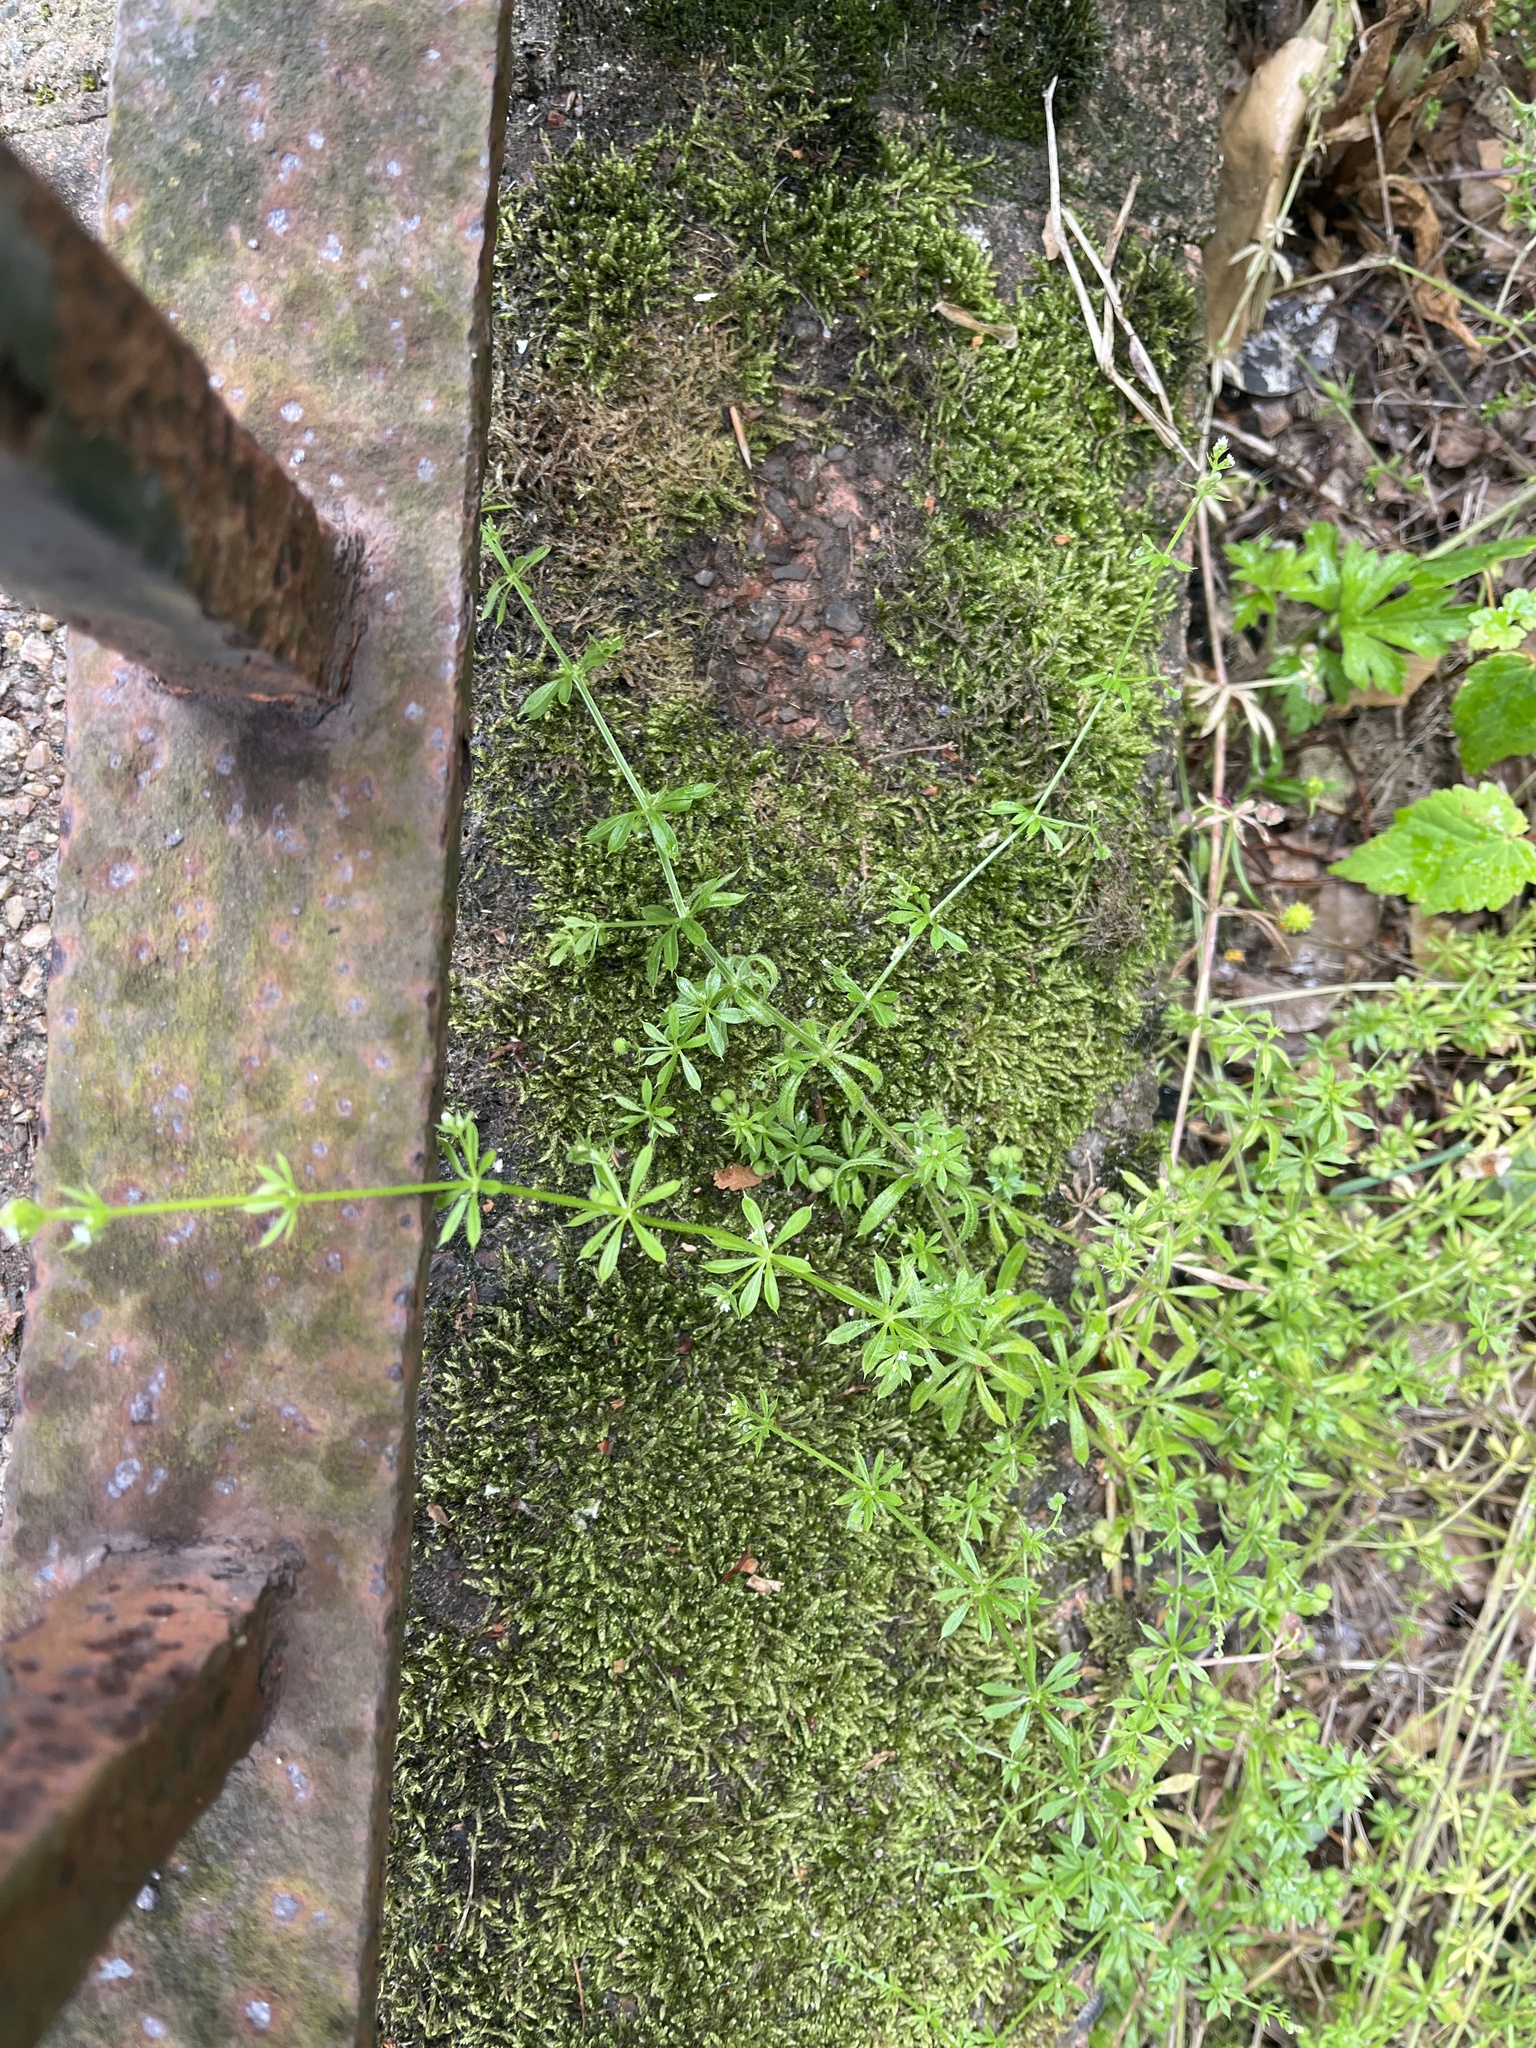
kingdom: Plantae
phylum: Tracheophyta
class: Magnoliopsida
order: Gentianales
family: Rubiaceae
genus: Galium
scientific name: Galium aparine
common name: Cleavers
